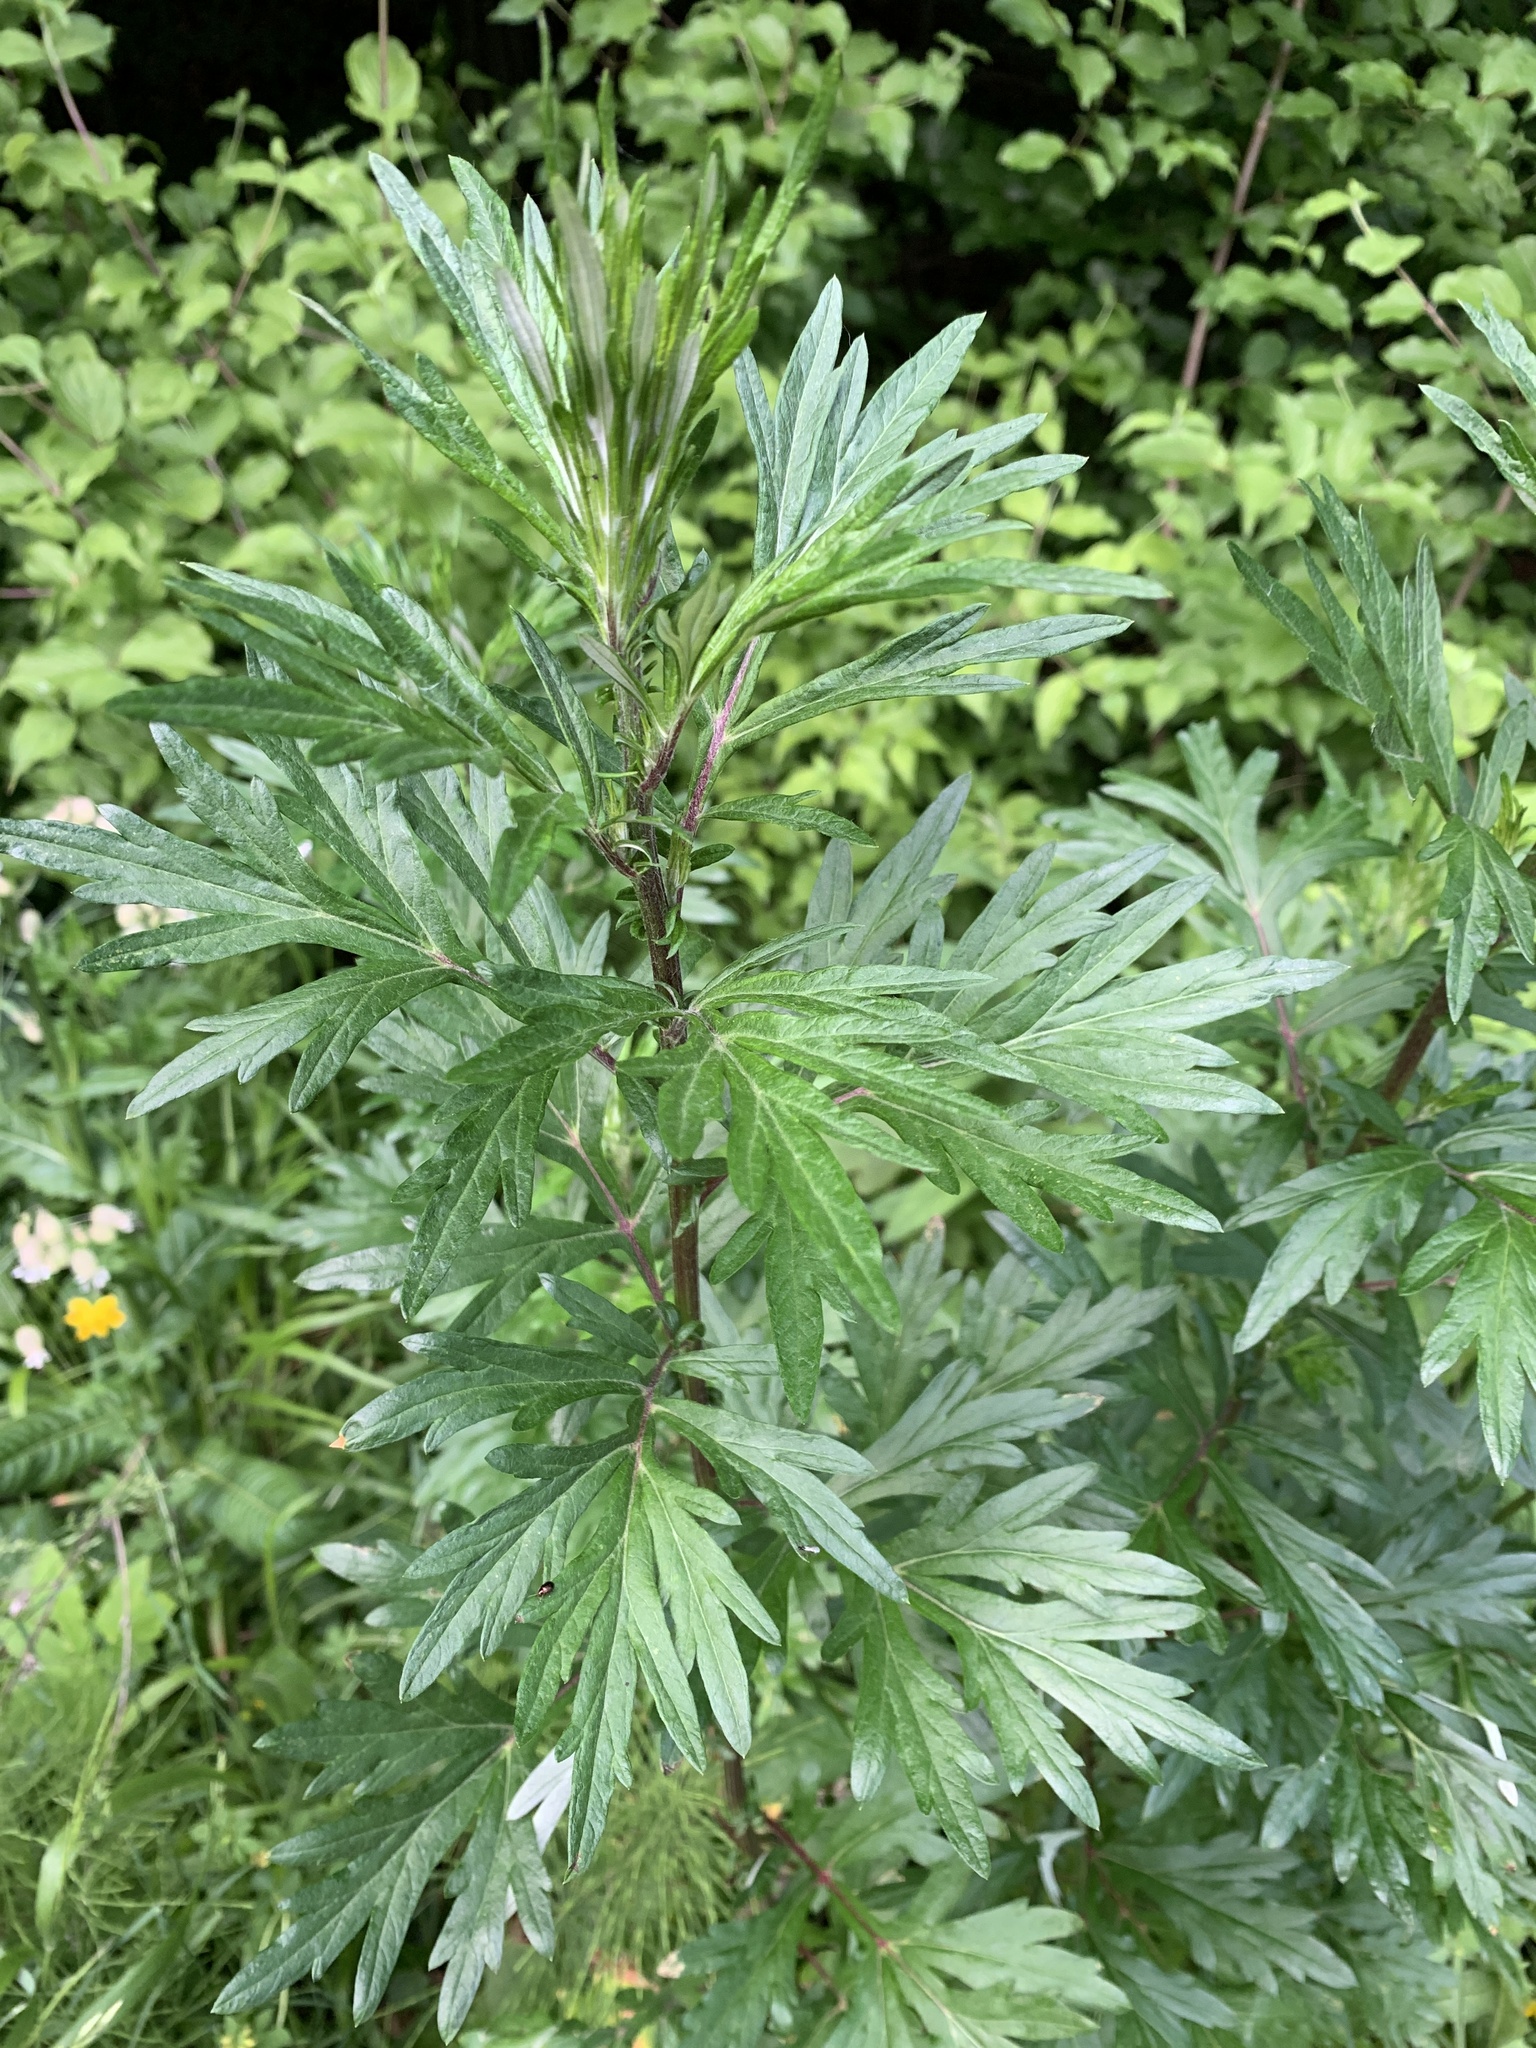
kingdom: Plantae
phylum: Tracheophyta
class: Magnoliopsida
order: Asterales
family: Asteraceae
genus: Artemisia
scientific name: Artemisia vulgaris
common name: Mugwort
